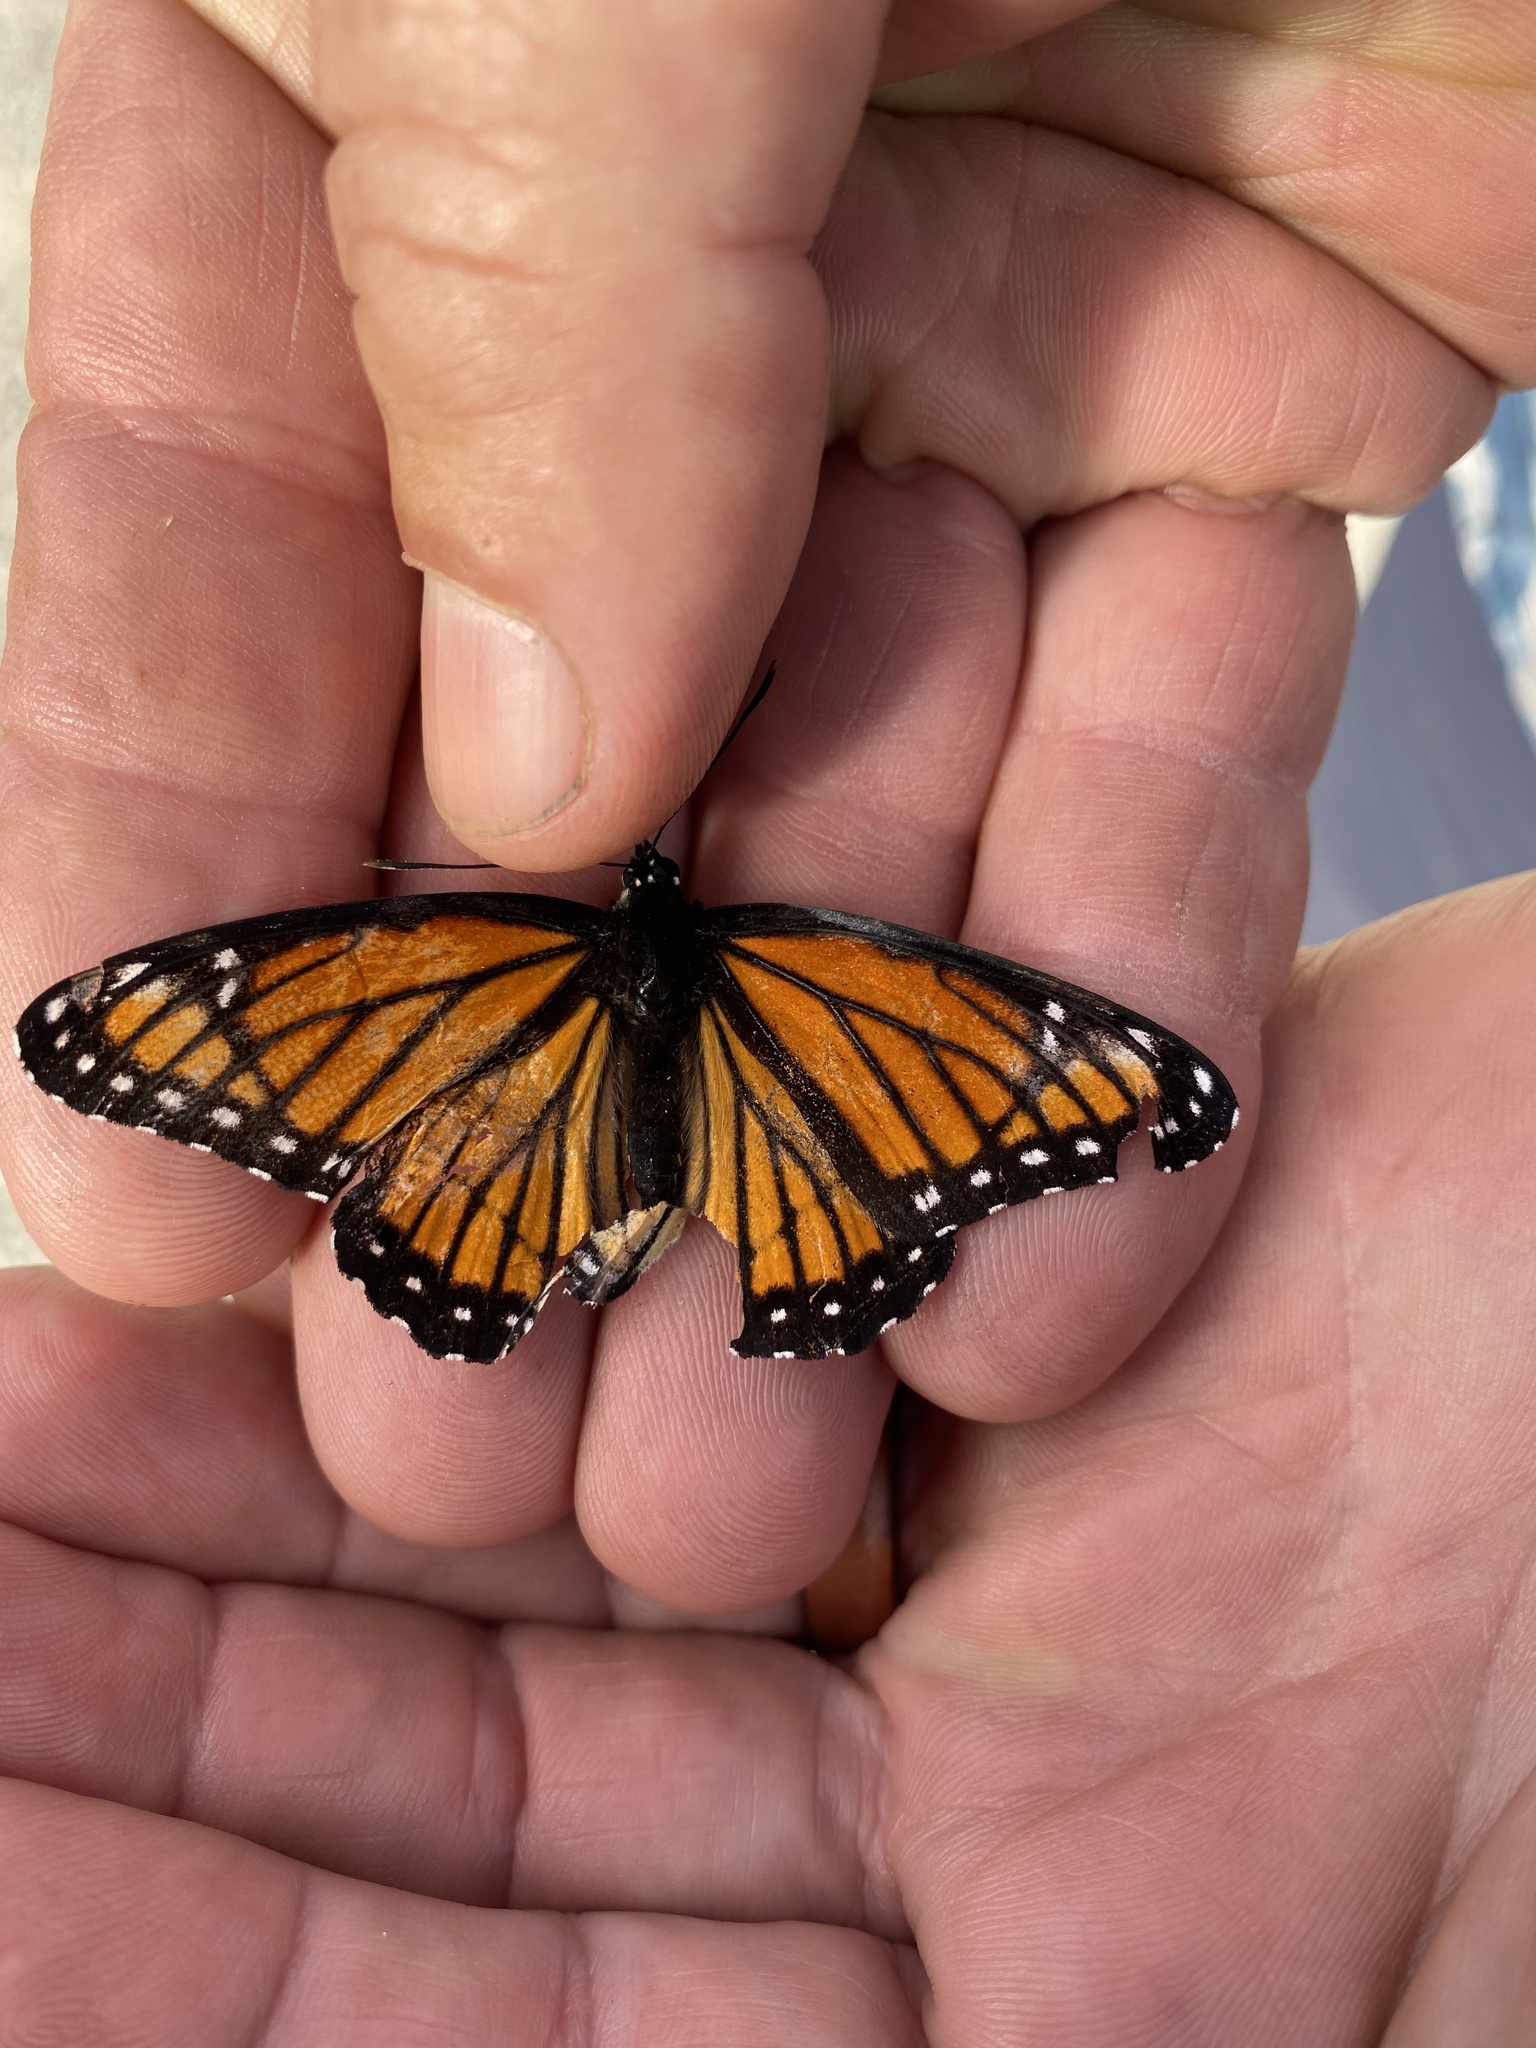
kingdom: Animalia
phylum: Arthropoda
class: Insecta
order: Lepidoptera
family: Nymphalidae
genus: Limenitis
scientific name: Limenitis archippus
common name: Viceroy
